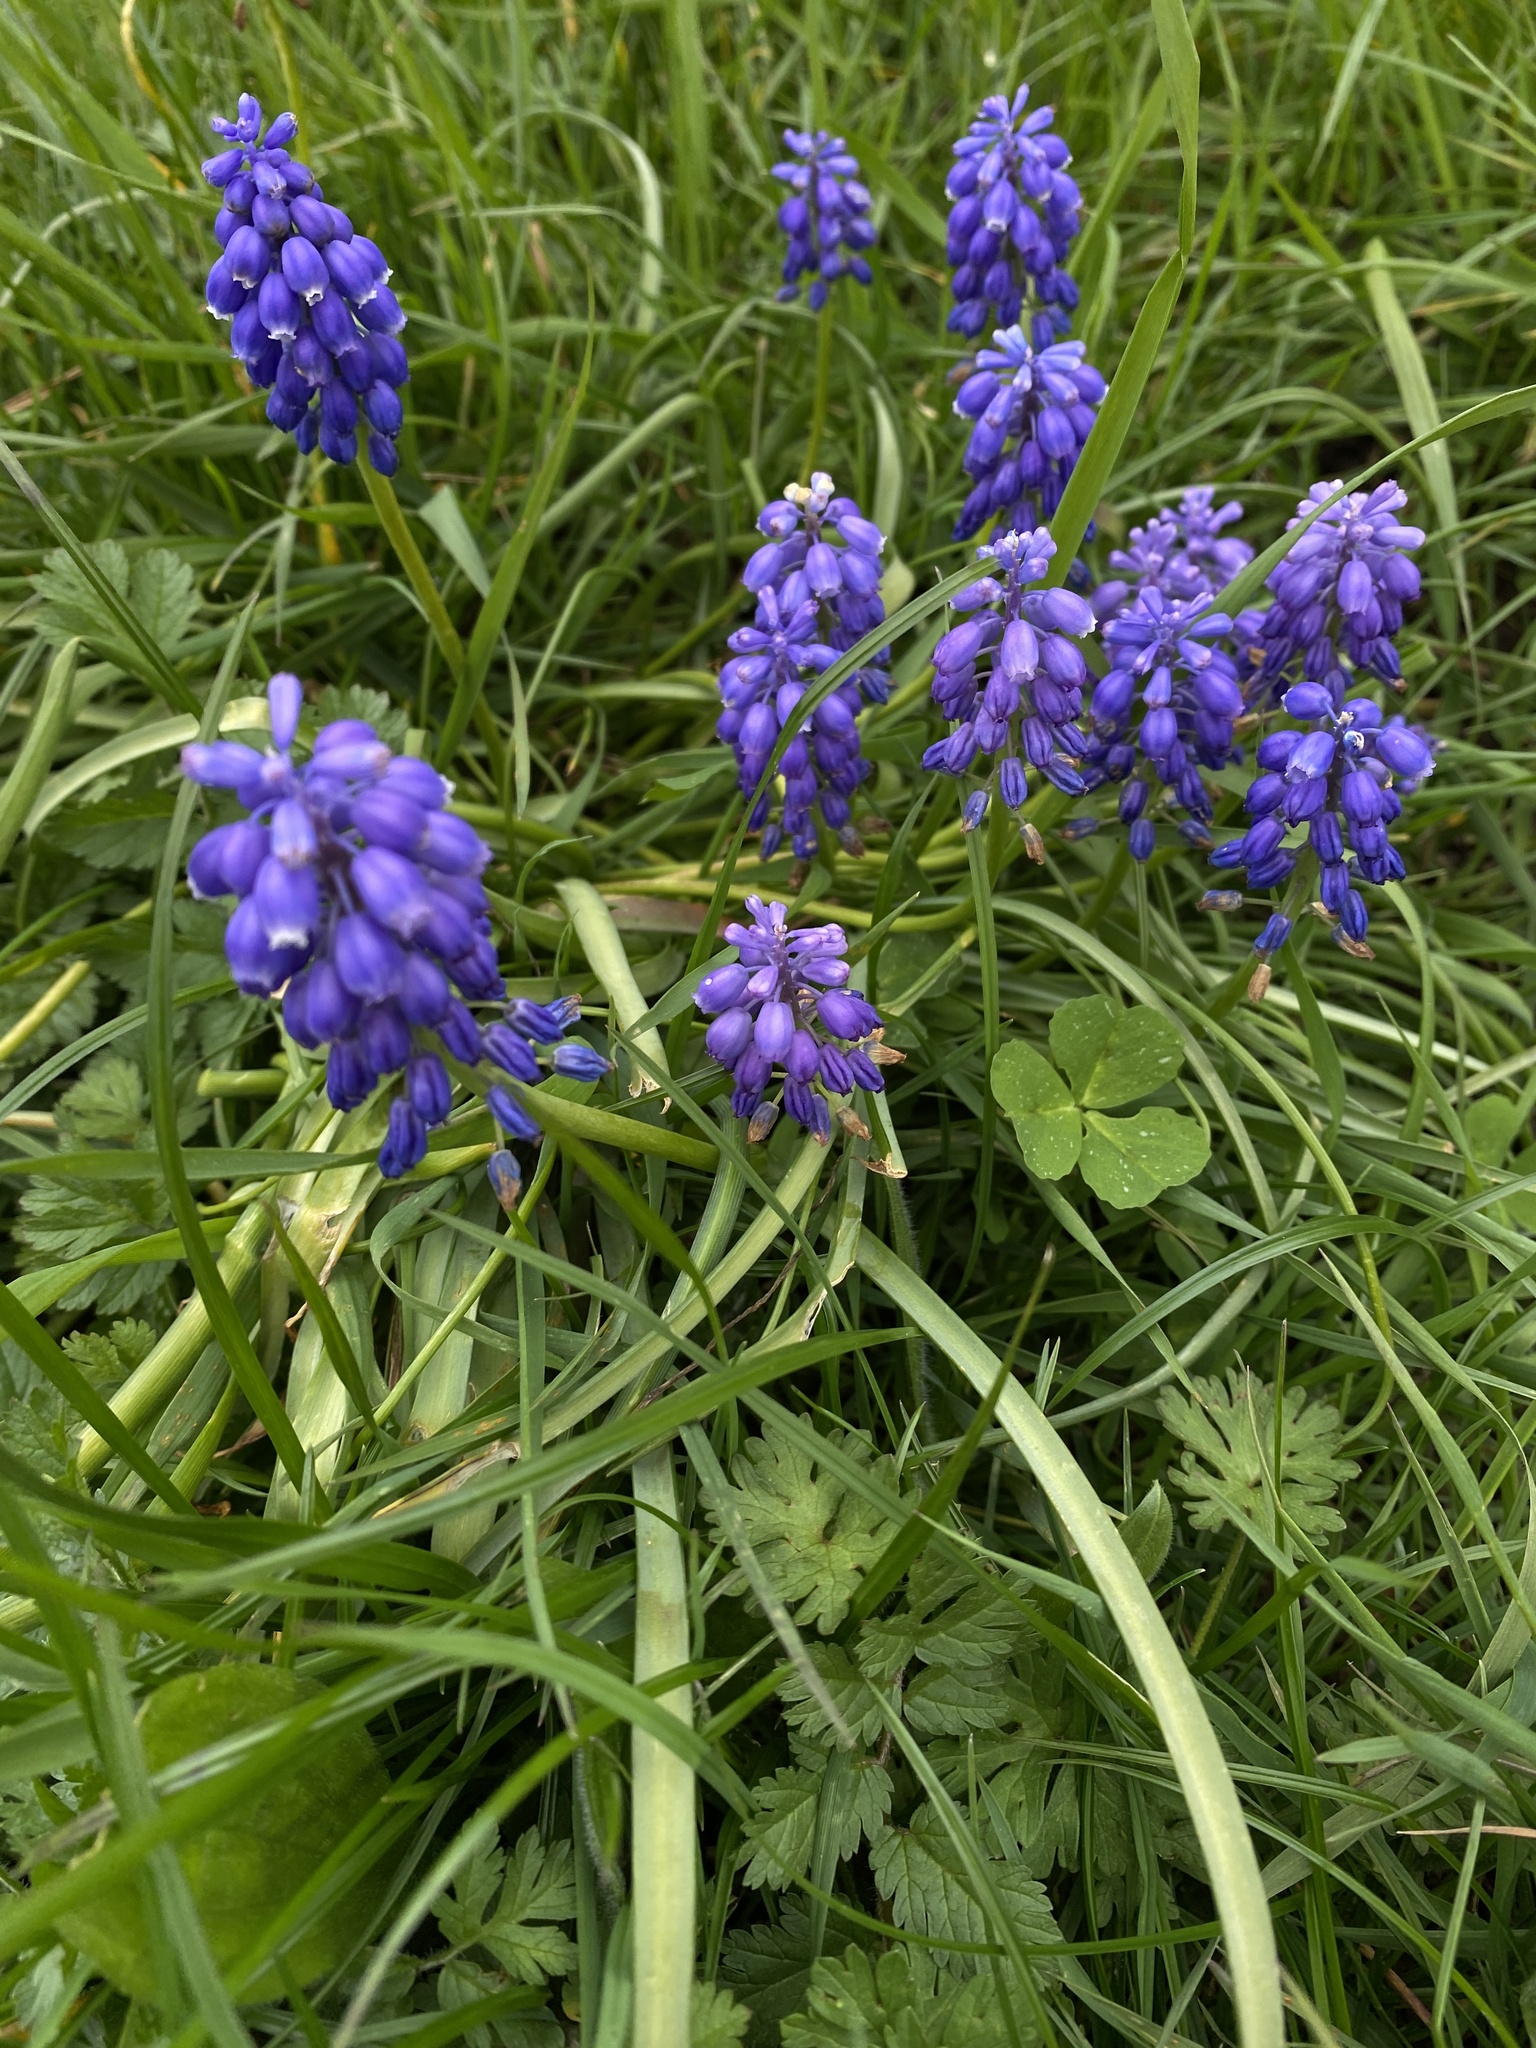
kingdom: Plantae
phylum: Tracheophyta
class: Liliopsida
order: Asparagales
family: Asparagaceae
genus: Muscari
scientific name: Muscari armeniacum
